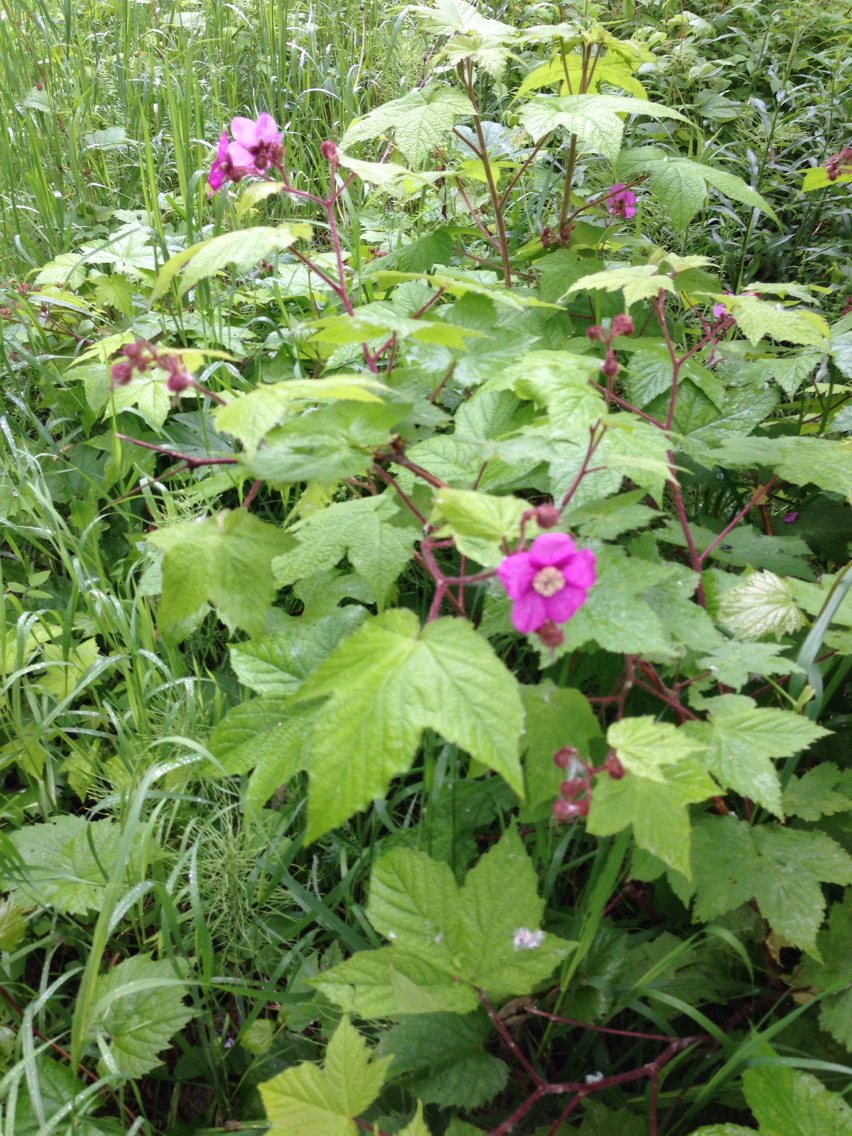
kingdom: Plantae
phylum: Tracheophyta
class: Magnoliopsida
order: Rosales
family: Rosaceae
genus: Rubus
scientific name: Rubus odoratus
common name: Purple-flowered raspberry
